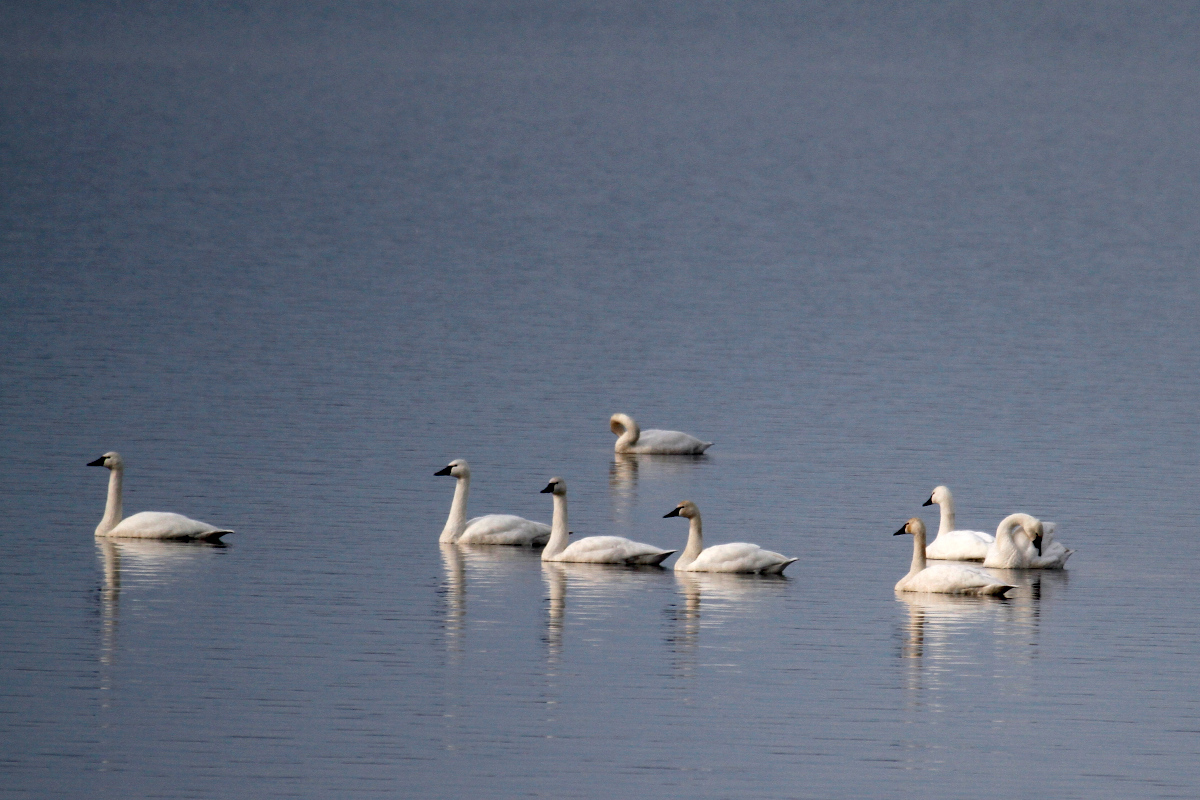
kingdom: Animalia
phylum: Chordata
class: Aves
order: Anseriformes
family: Anatidae
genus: Cygnus
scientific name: Cygnus columbianus
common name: Tundra swan
